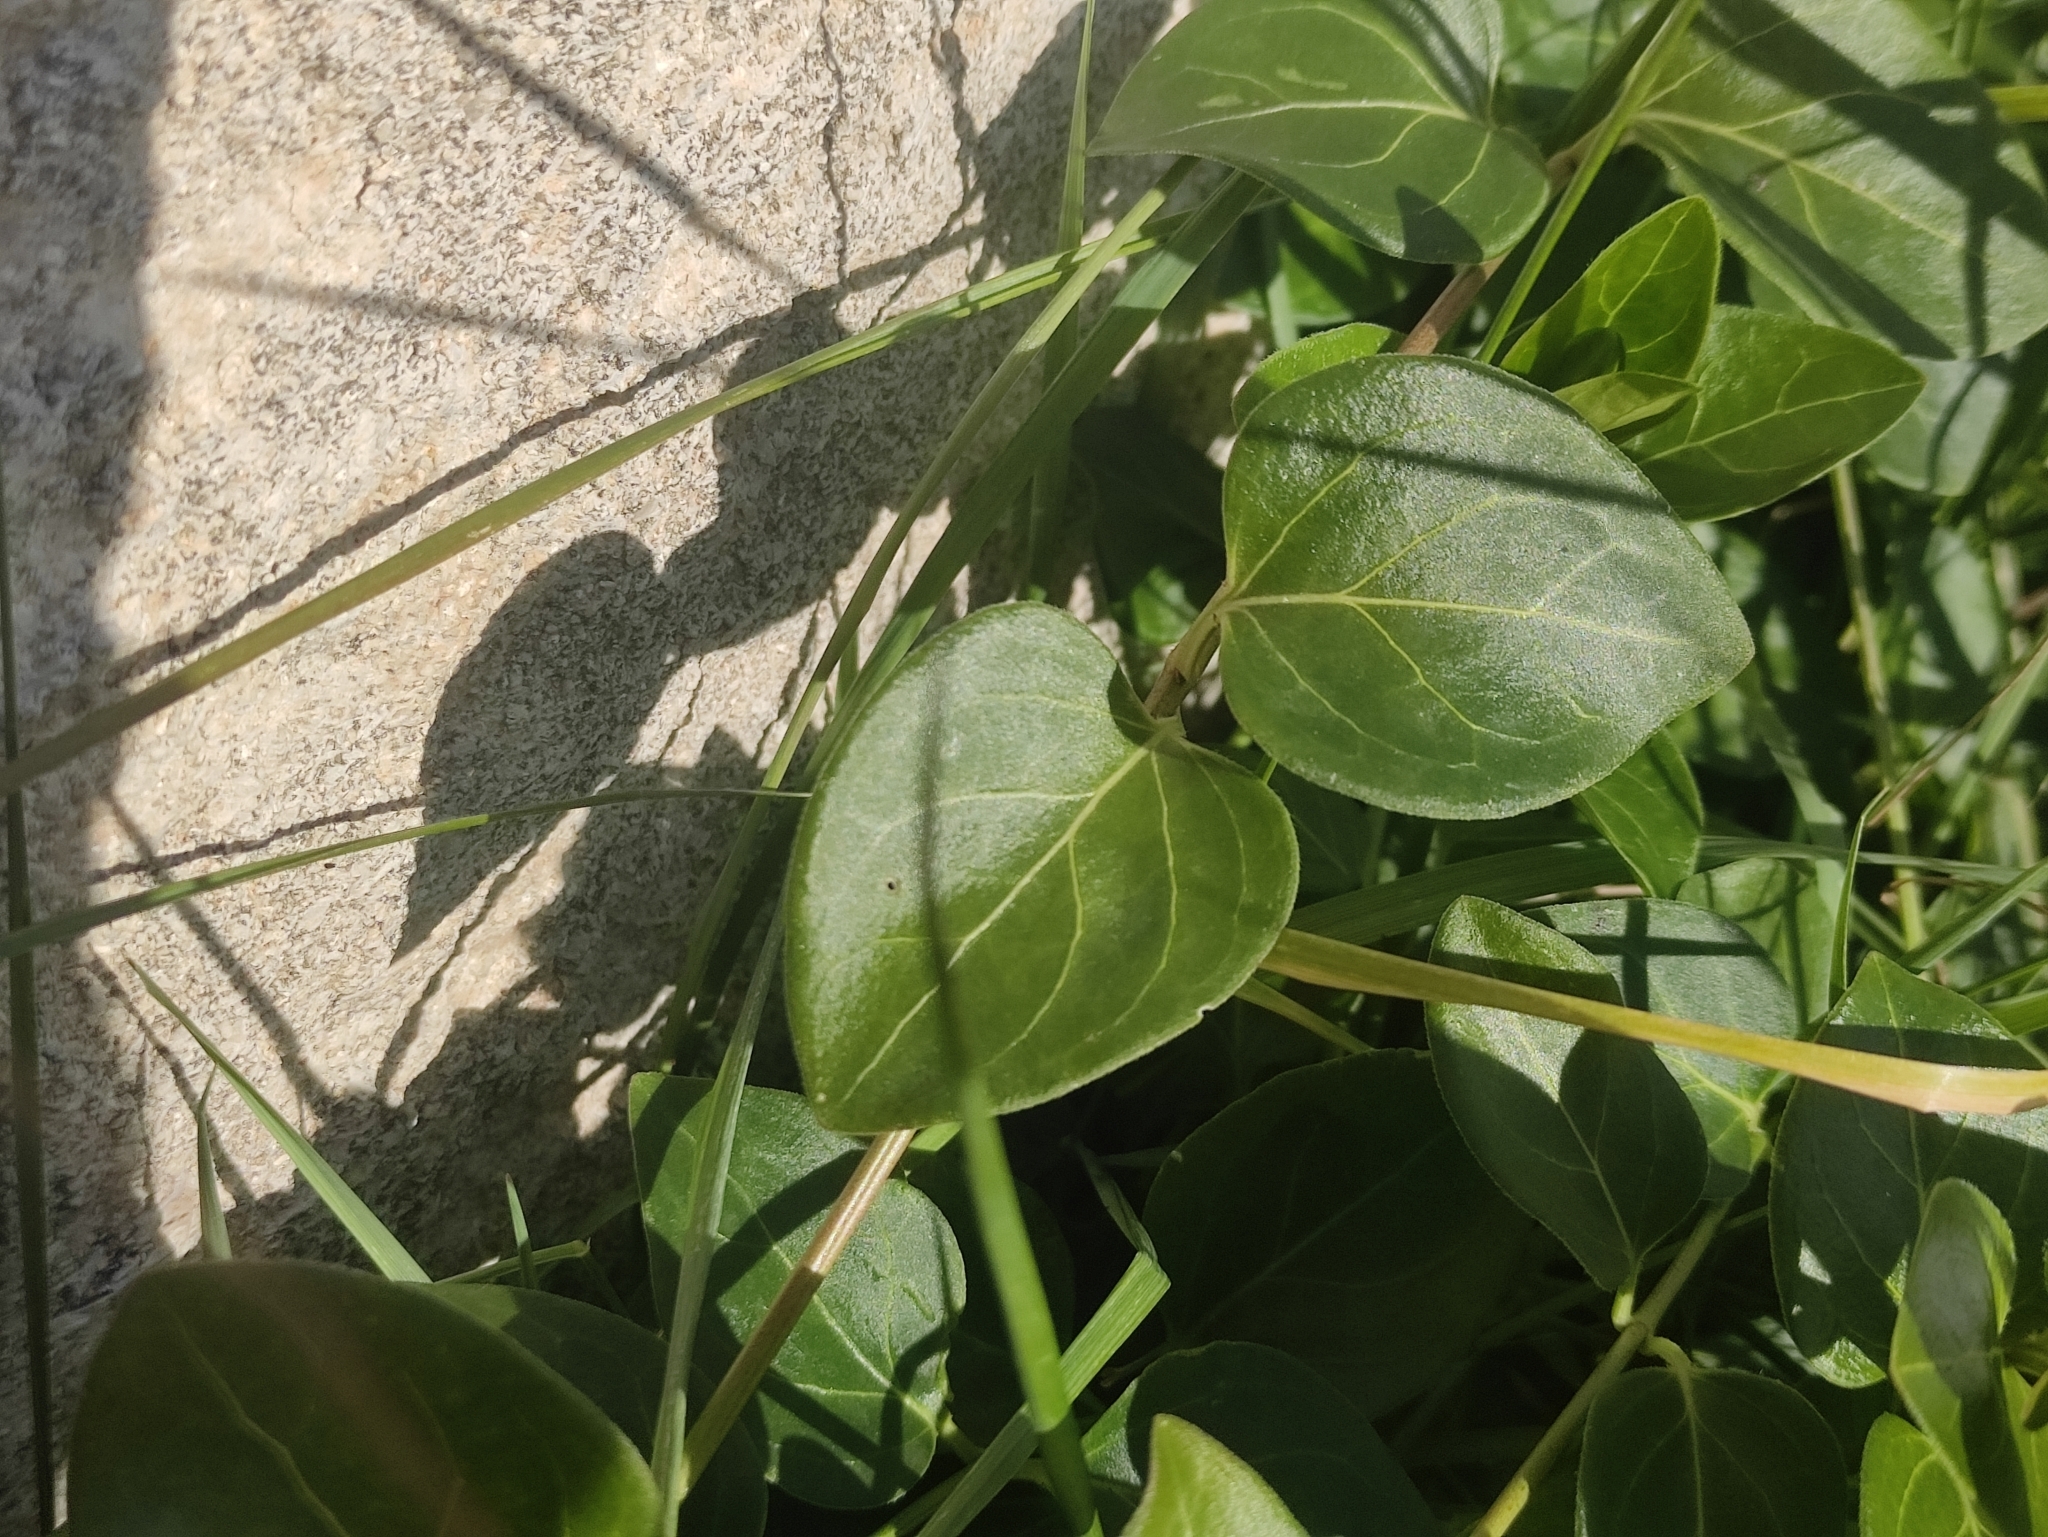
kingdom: Plantae
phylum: Tracheophyta
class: Magnoliopsida
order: Gentianales
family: Apocynaceae
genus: Vinca
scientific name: Vinca major
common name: Greater periwinkle
